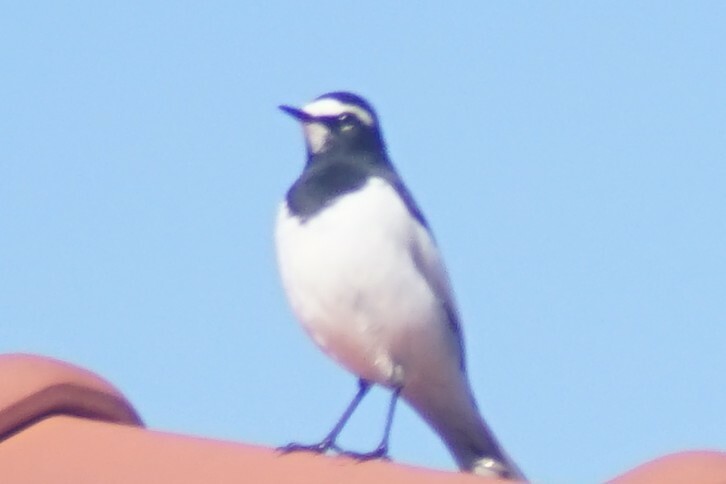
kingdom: Animalia
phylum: Chordata
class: Aves
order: Passeriformes
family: Motacillidae
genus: Motacilla
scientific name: Motacilla grandis
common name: Japanese wagtail
